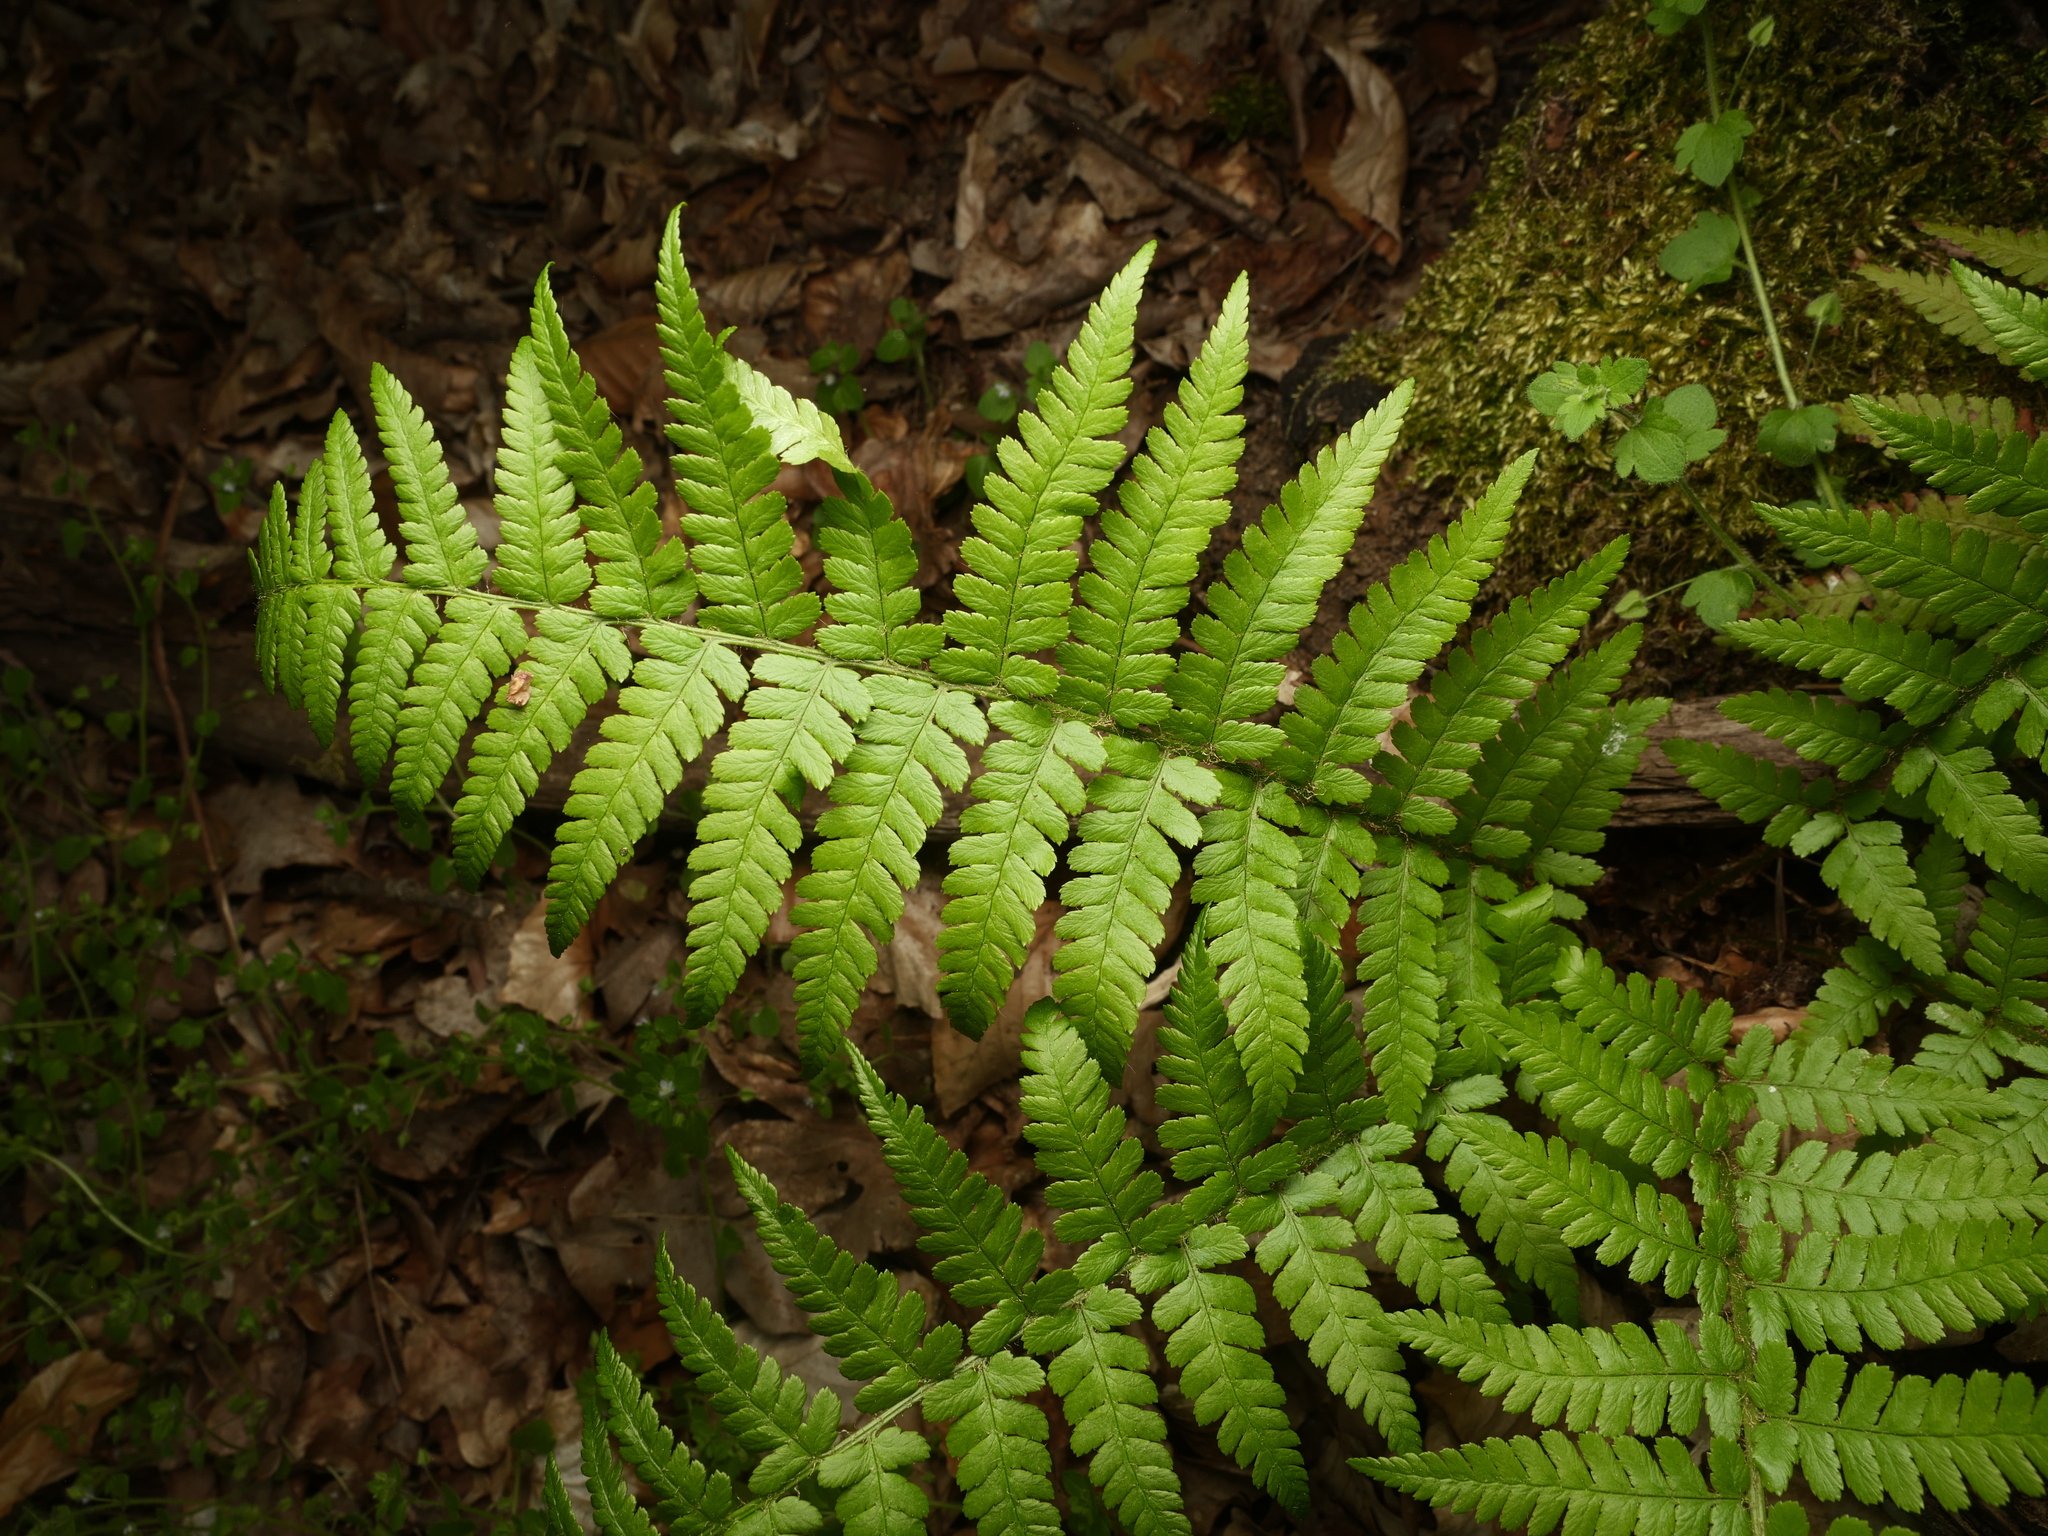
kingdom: Plantae
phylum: Tracheophyta
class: Polypodiopsida
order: Polypodiales
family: Dryopteridaceae
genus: Dryopteris
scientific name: Dryopteris filix-mas
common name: Male fern
